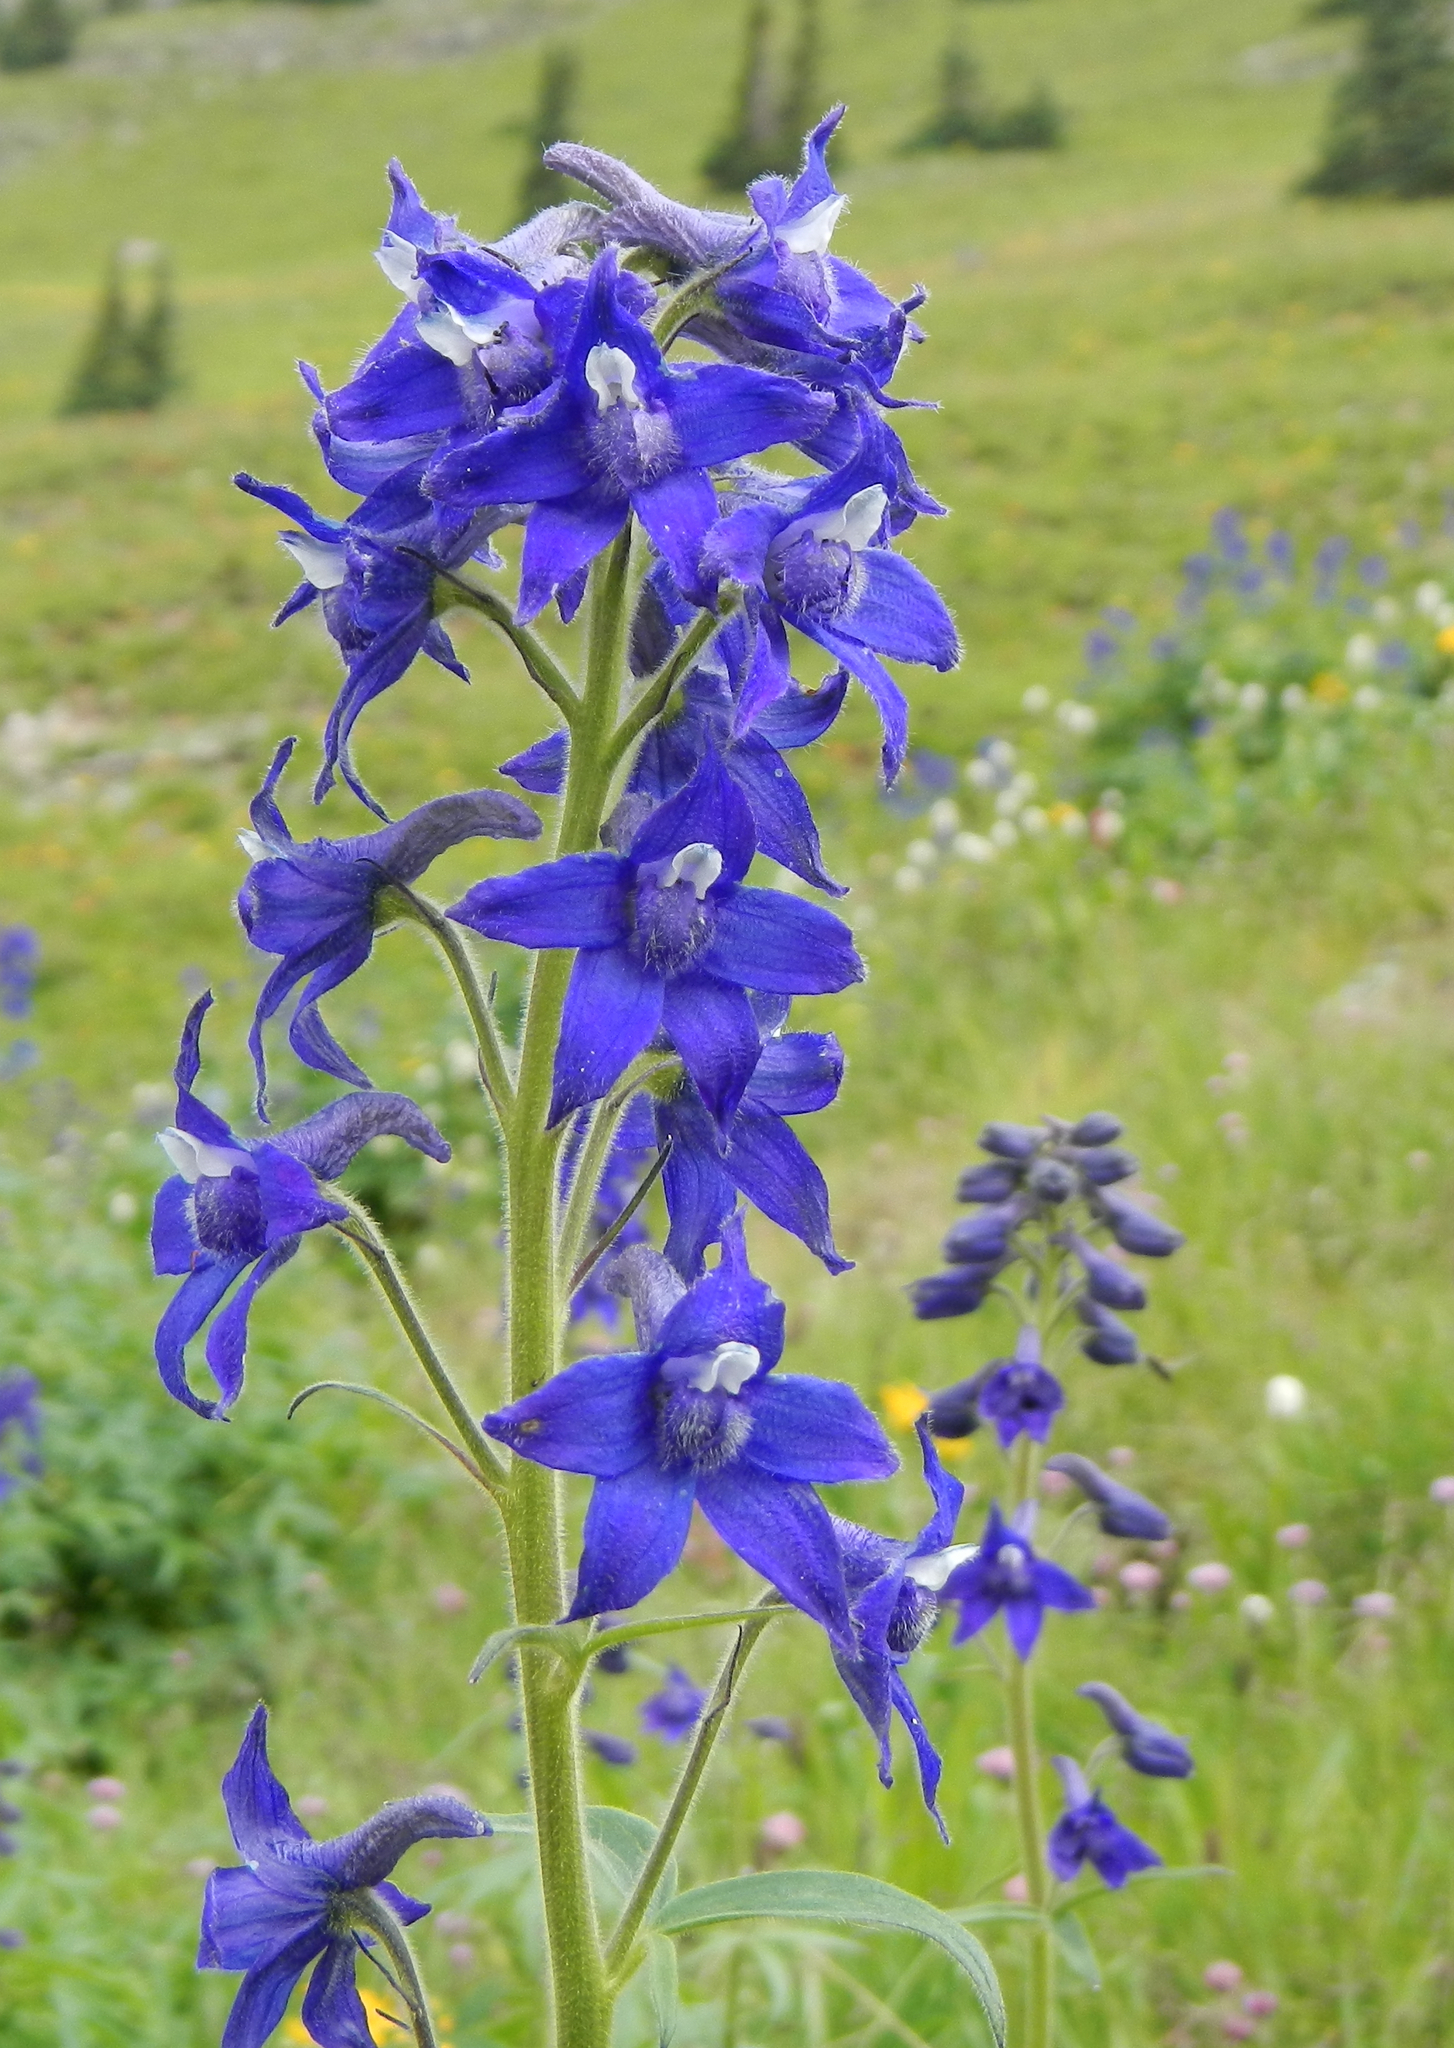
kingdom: Plantae
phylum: Tracheophyta
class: Magnoliopsida
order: Ranunculales
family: Ranunculaceae
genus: Delphinium
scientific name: Delphinium barbeyi
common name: Subalpine larkspur
